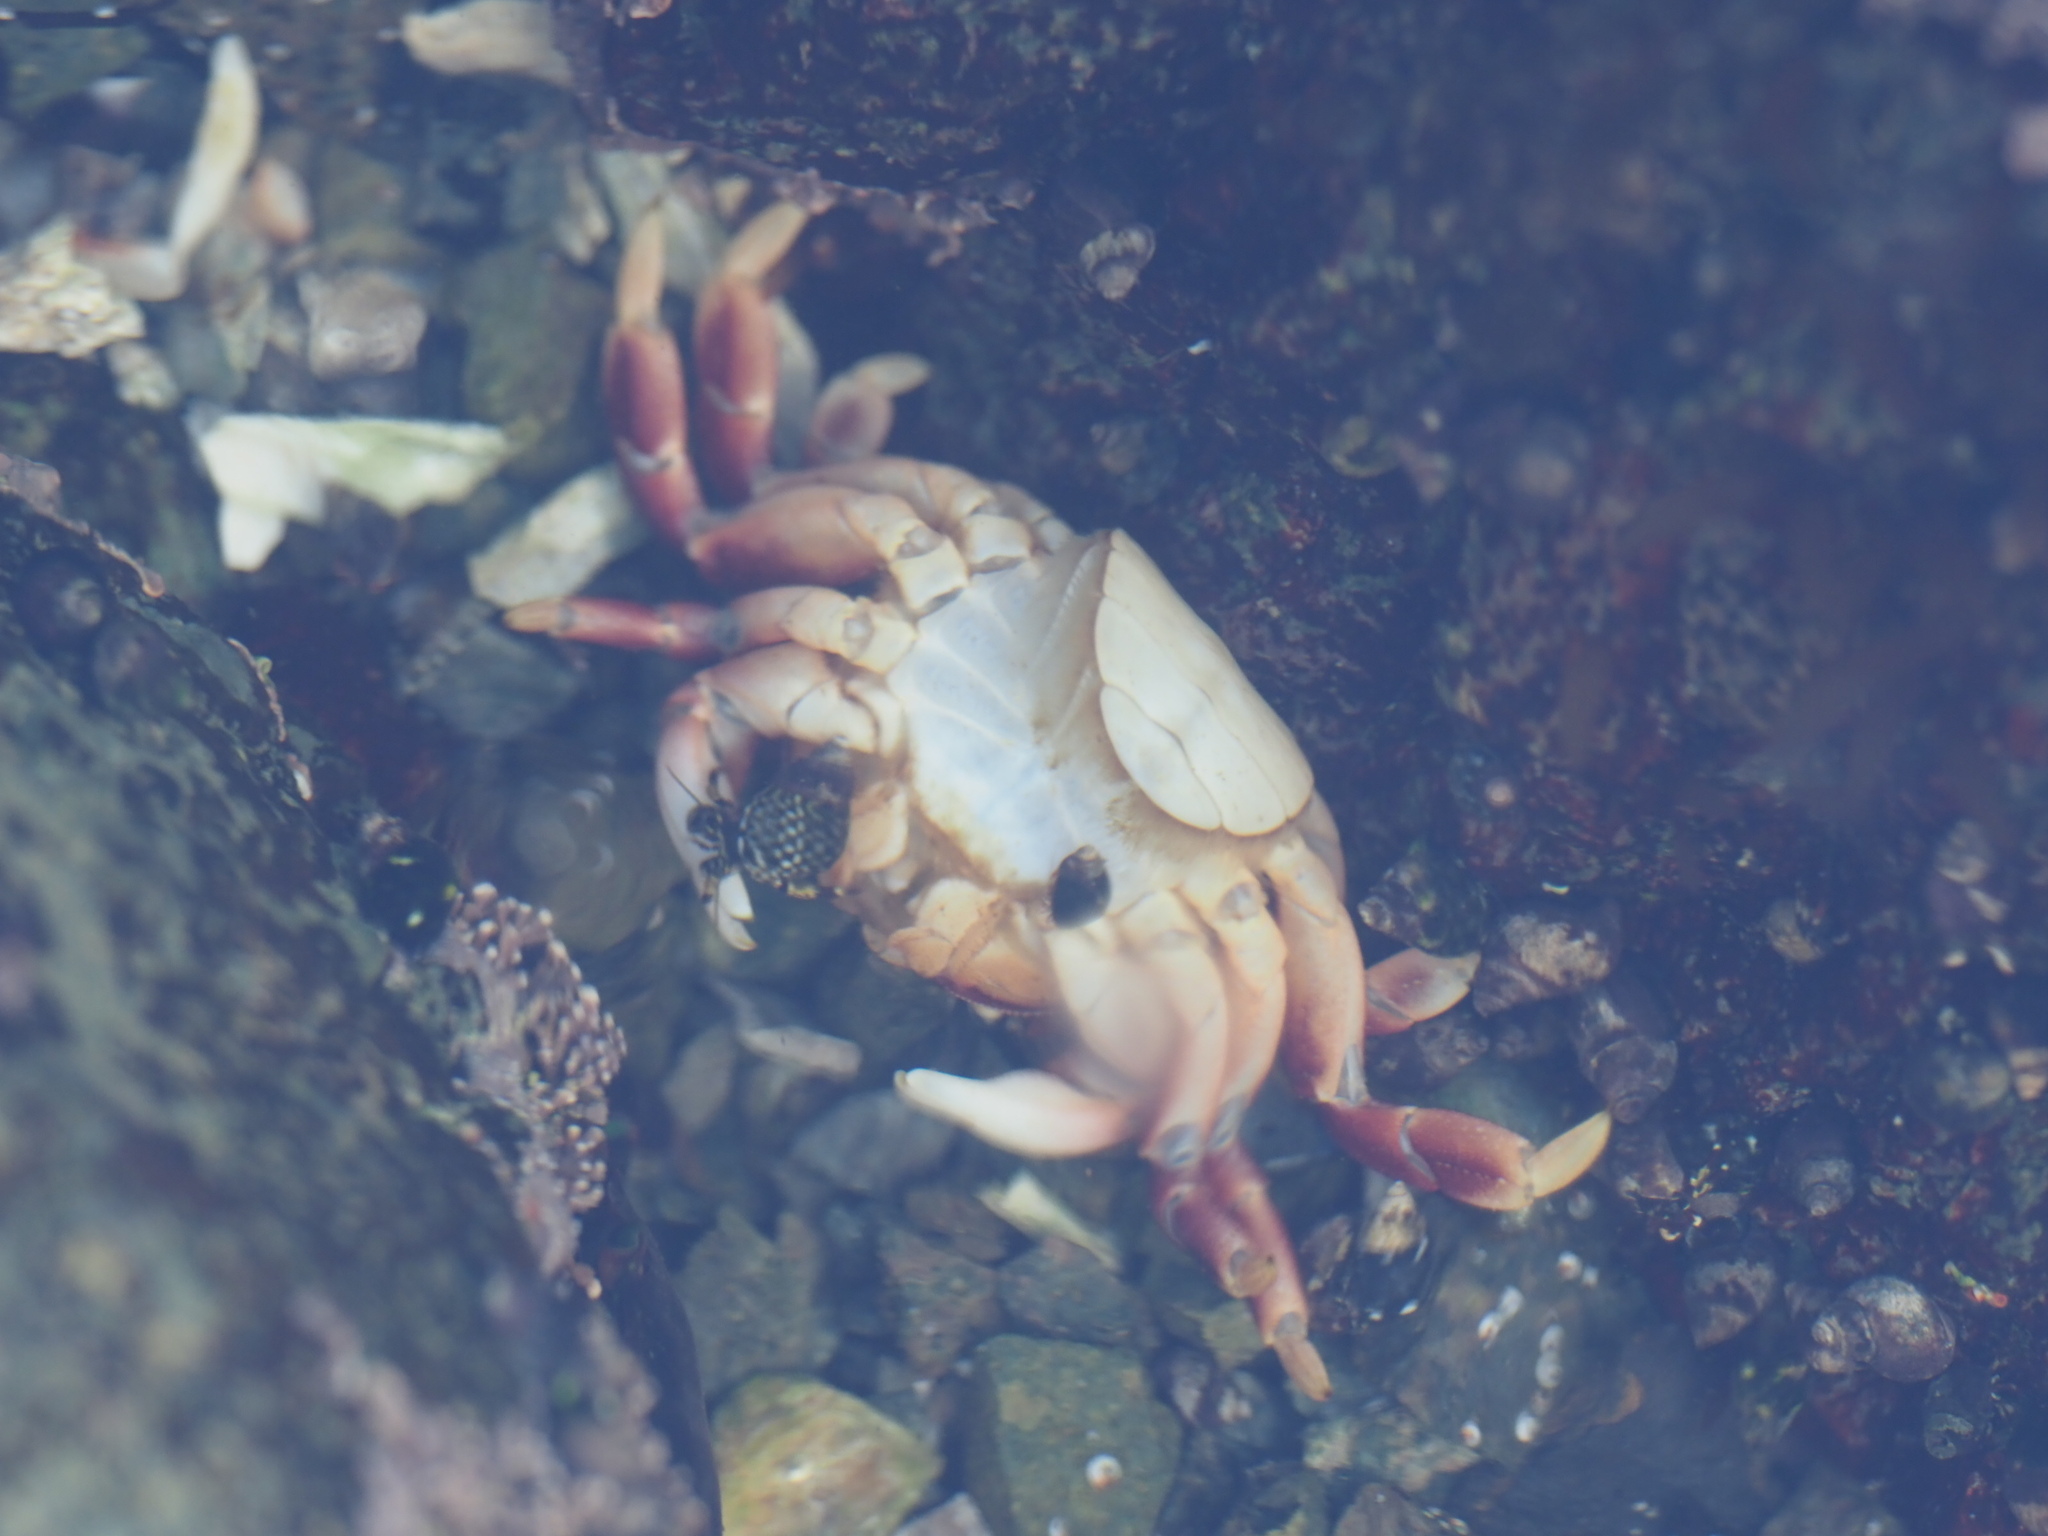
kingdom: Animalia
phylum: Arthropoda
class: Malacostraca
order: Decapoda
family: Varunidae
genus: Hemigrapsus
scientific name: Hemigrapsus nudus
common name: Purple shore crab
